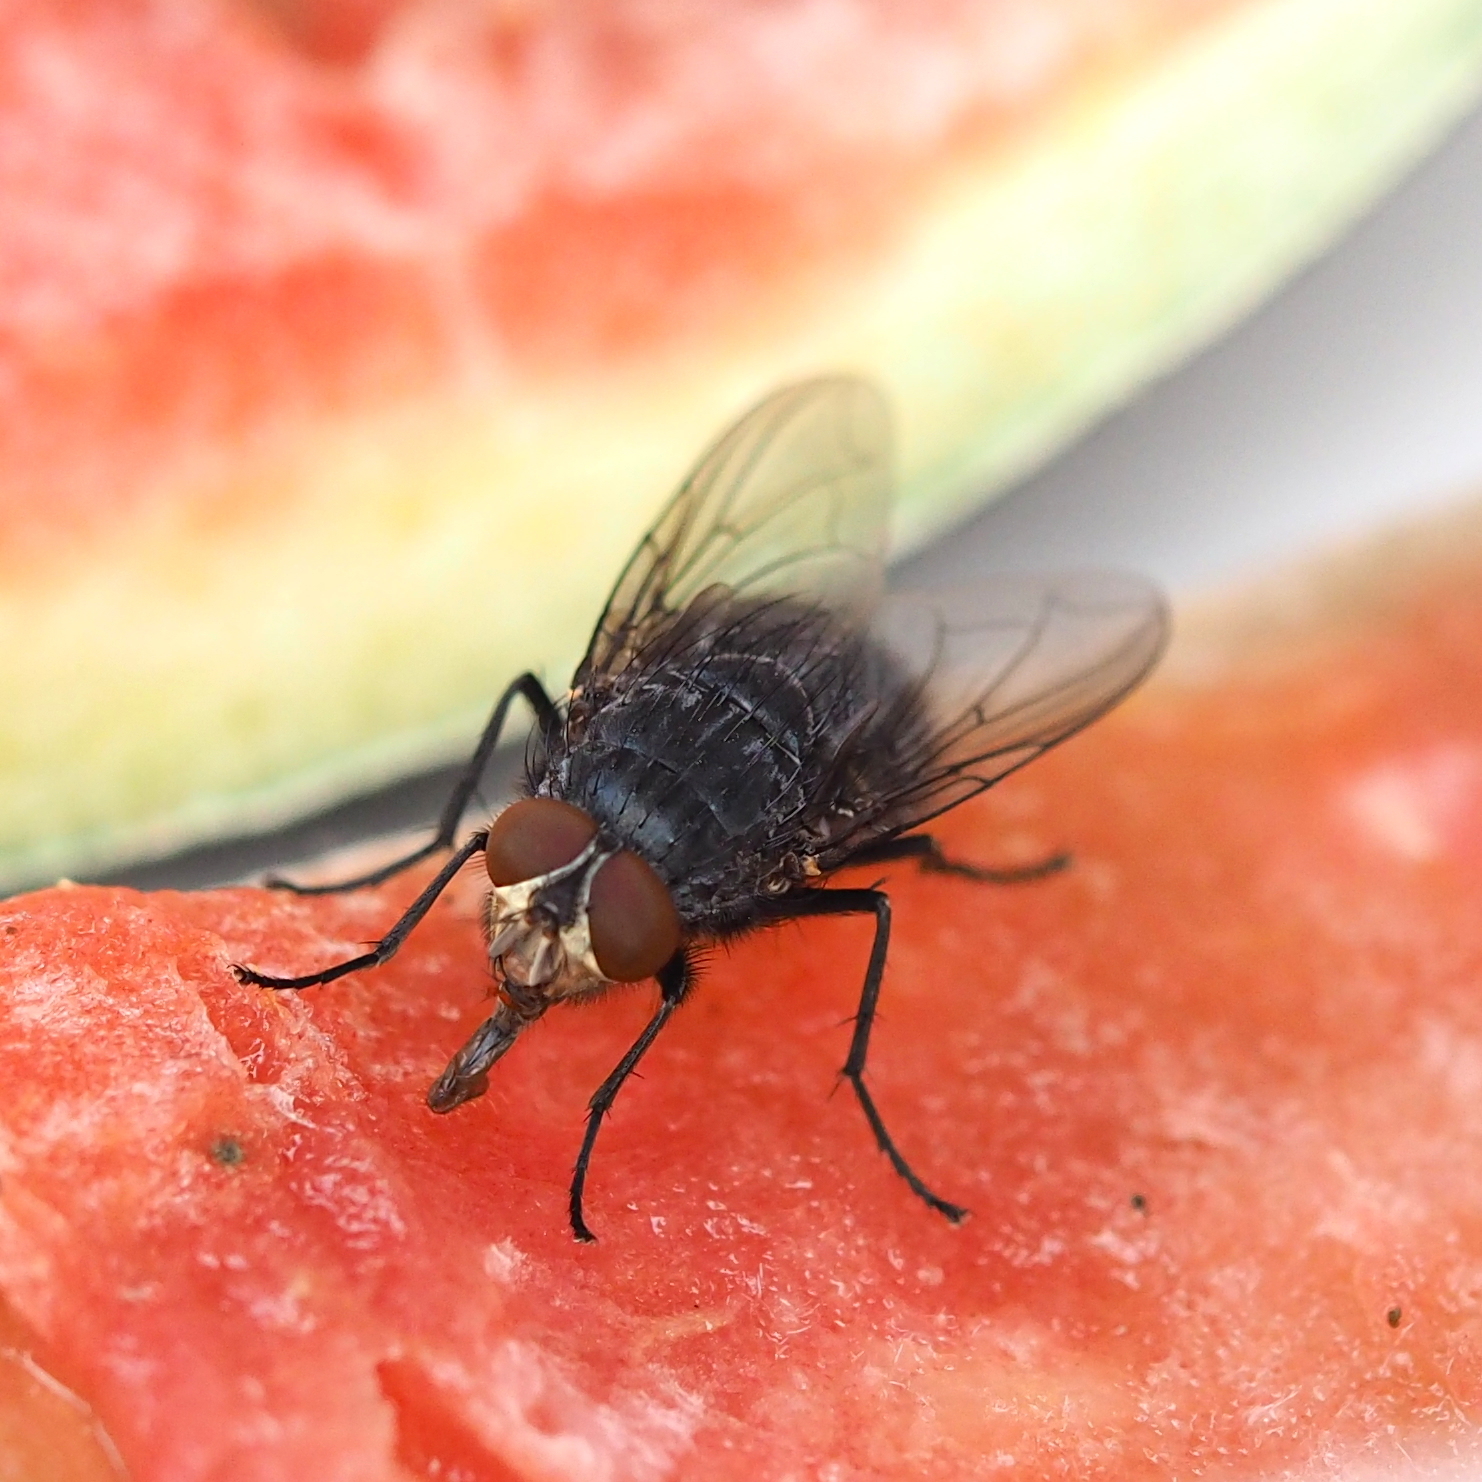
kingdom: Animalia
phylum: Arthropoda
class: Insecta
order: Diptera
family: Calliphoridae
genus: Calliphora
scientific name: Calliphora vicina
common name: Common blow flie
